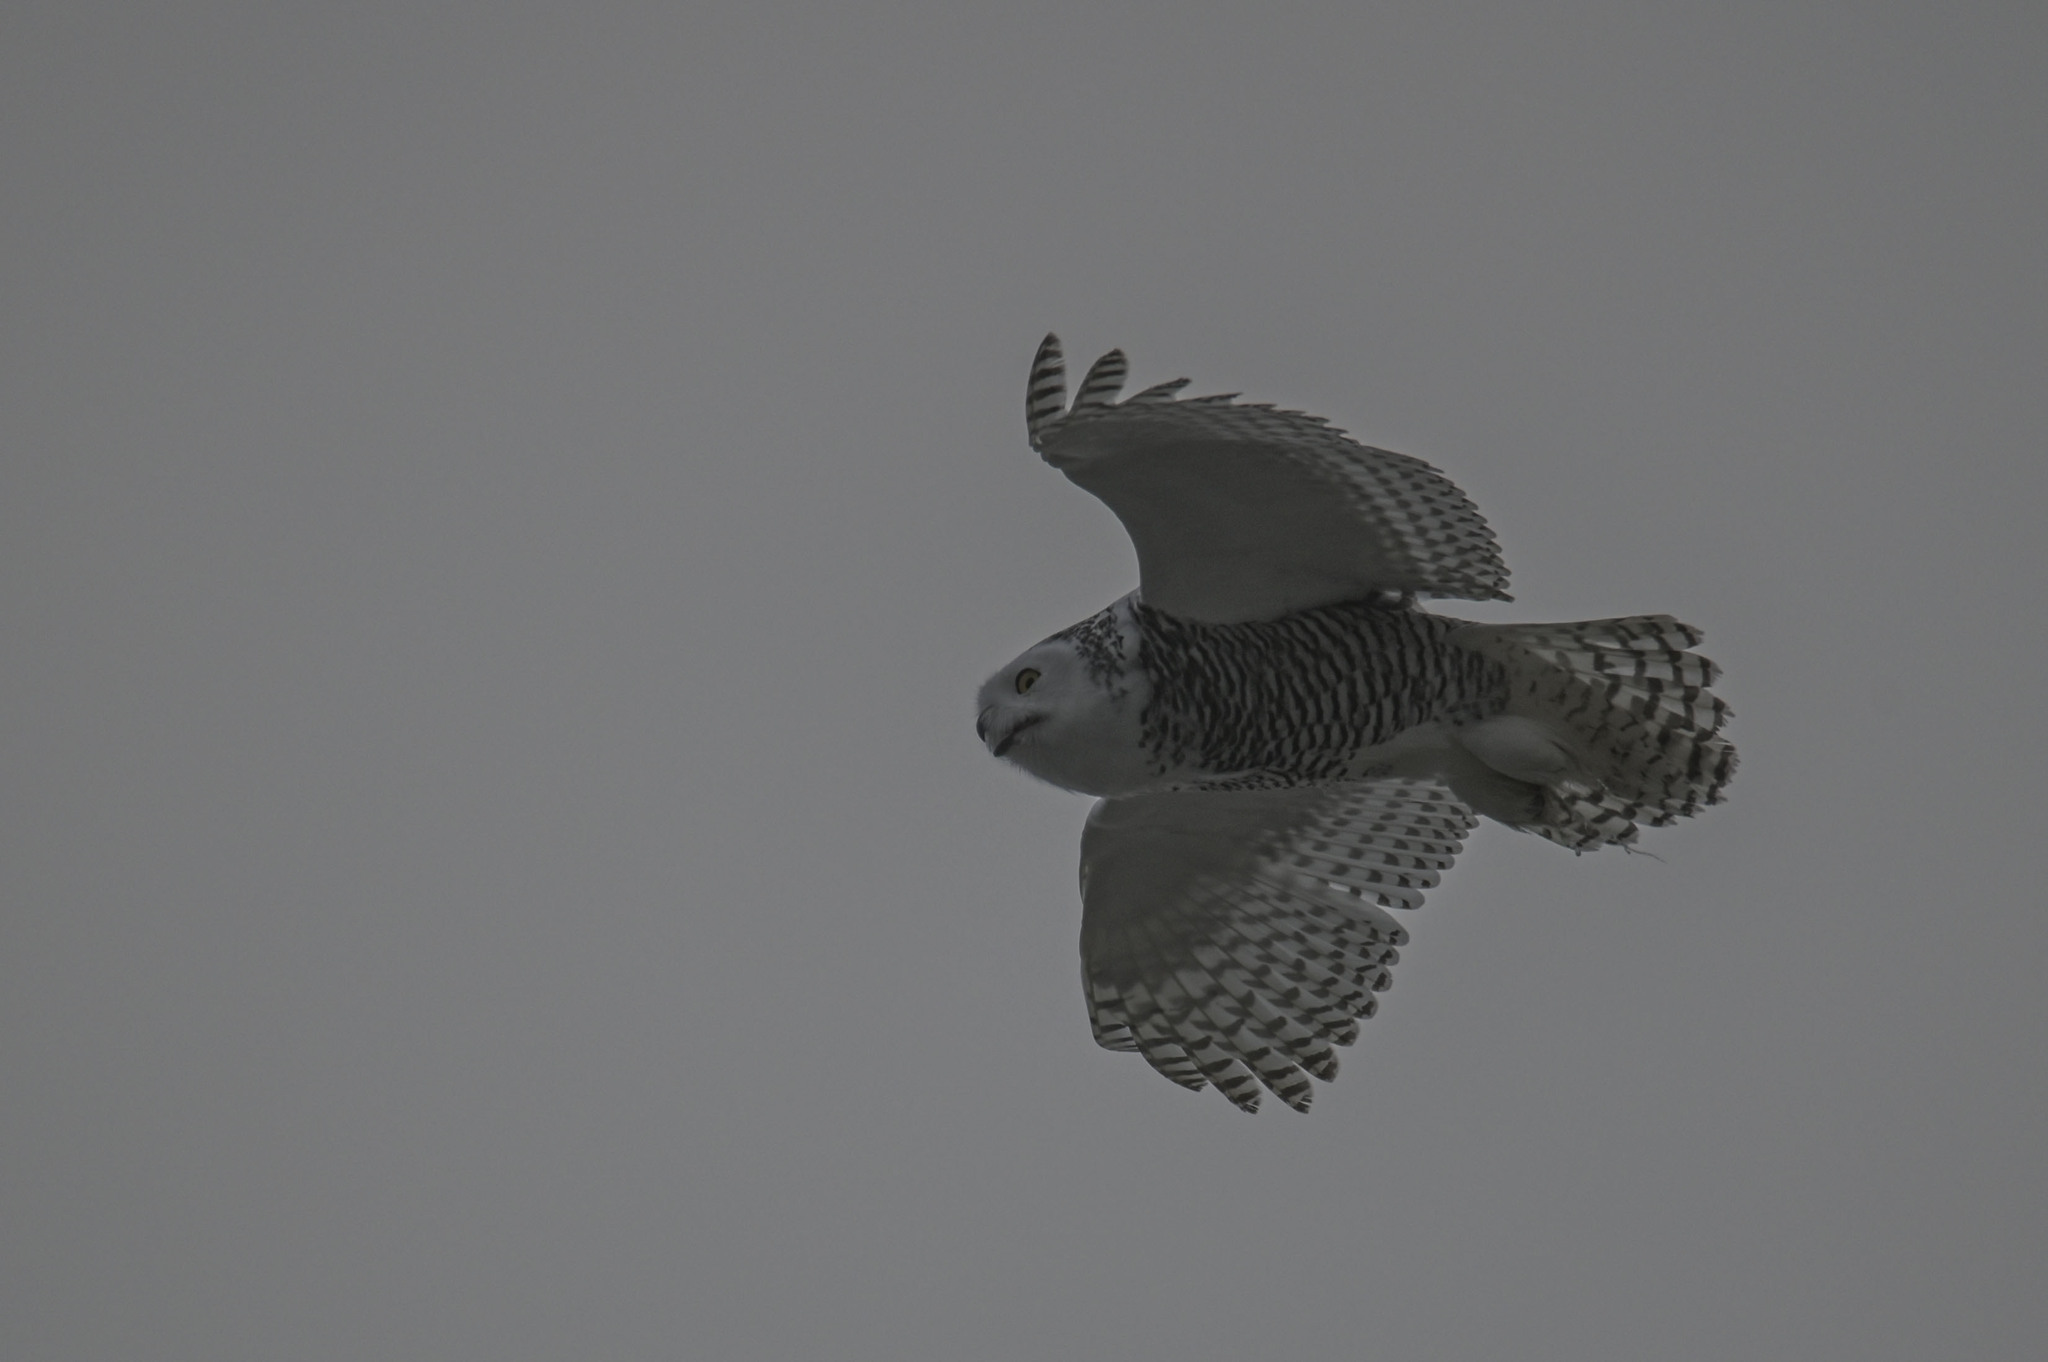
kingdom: Animalia
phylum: Chordata
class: Aves
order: Strigiformes
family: Strigidae
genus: Bubo
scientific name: Bubo scandiacus
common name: Snowy owl
